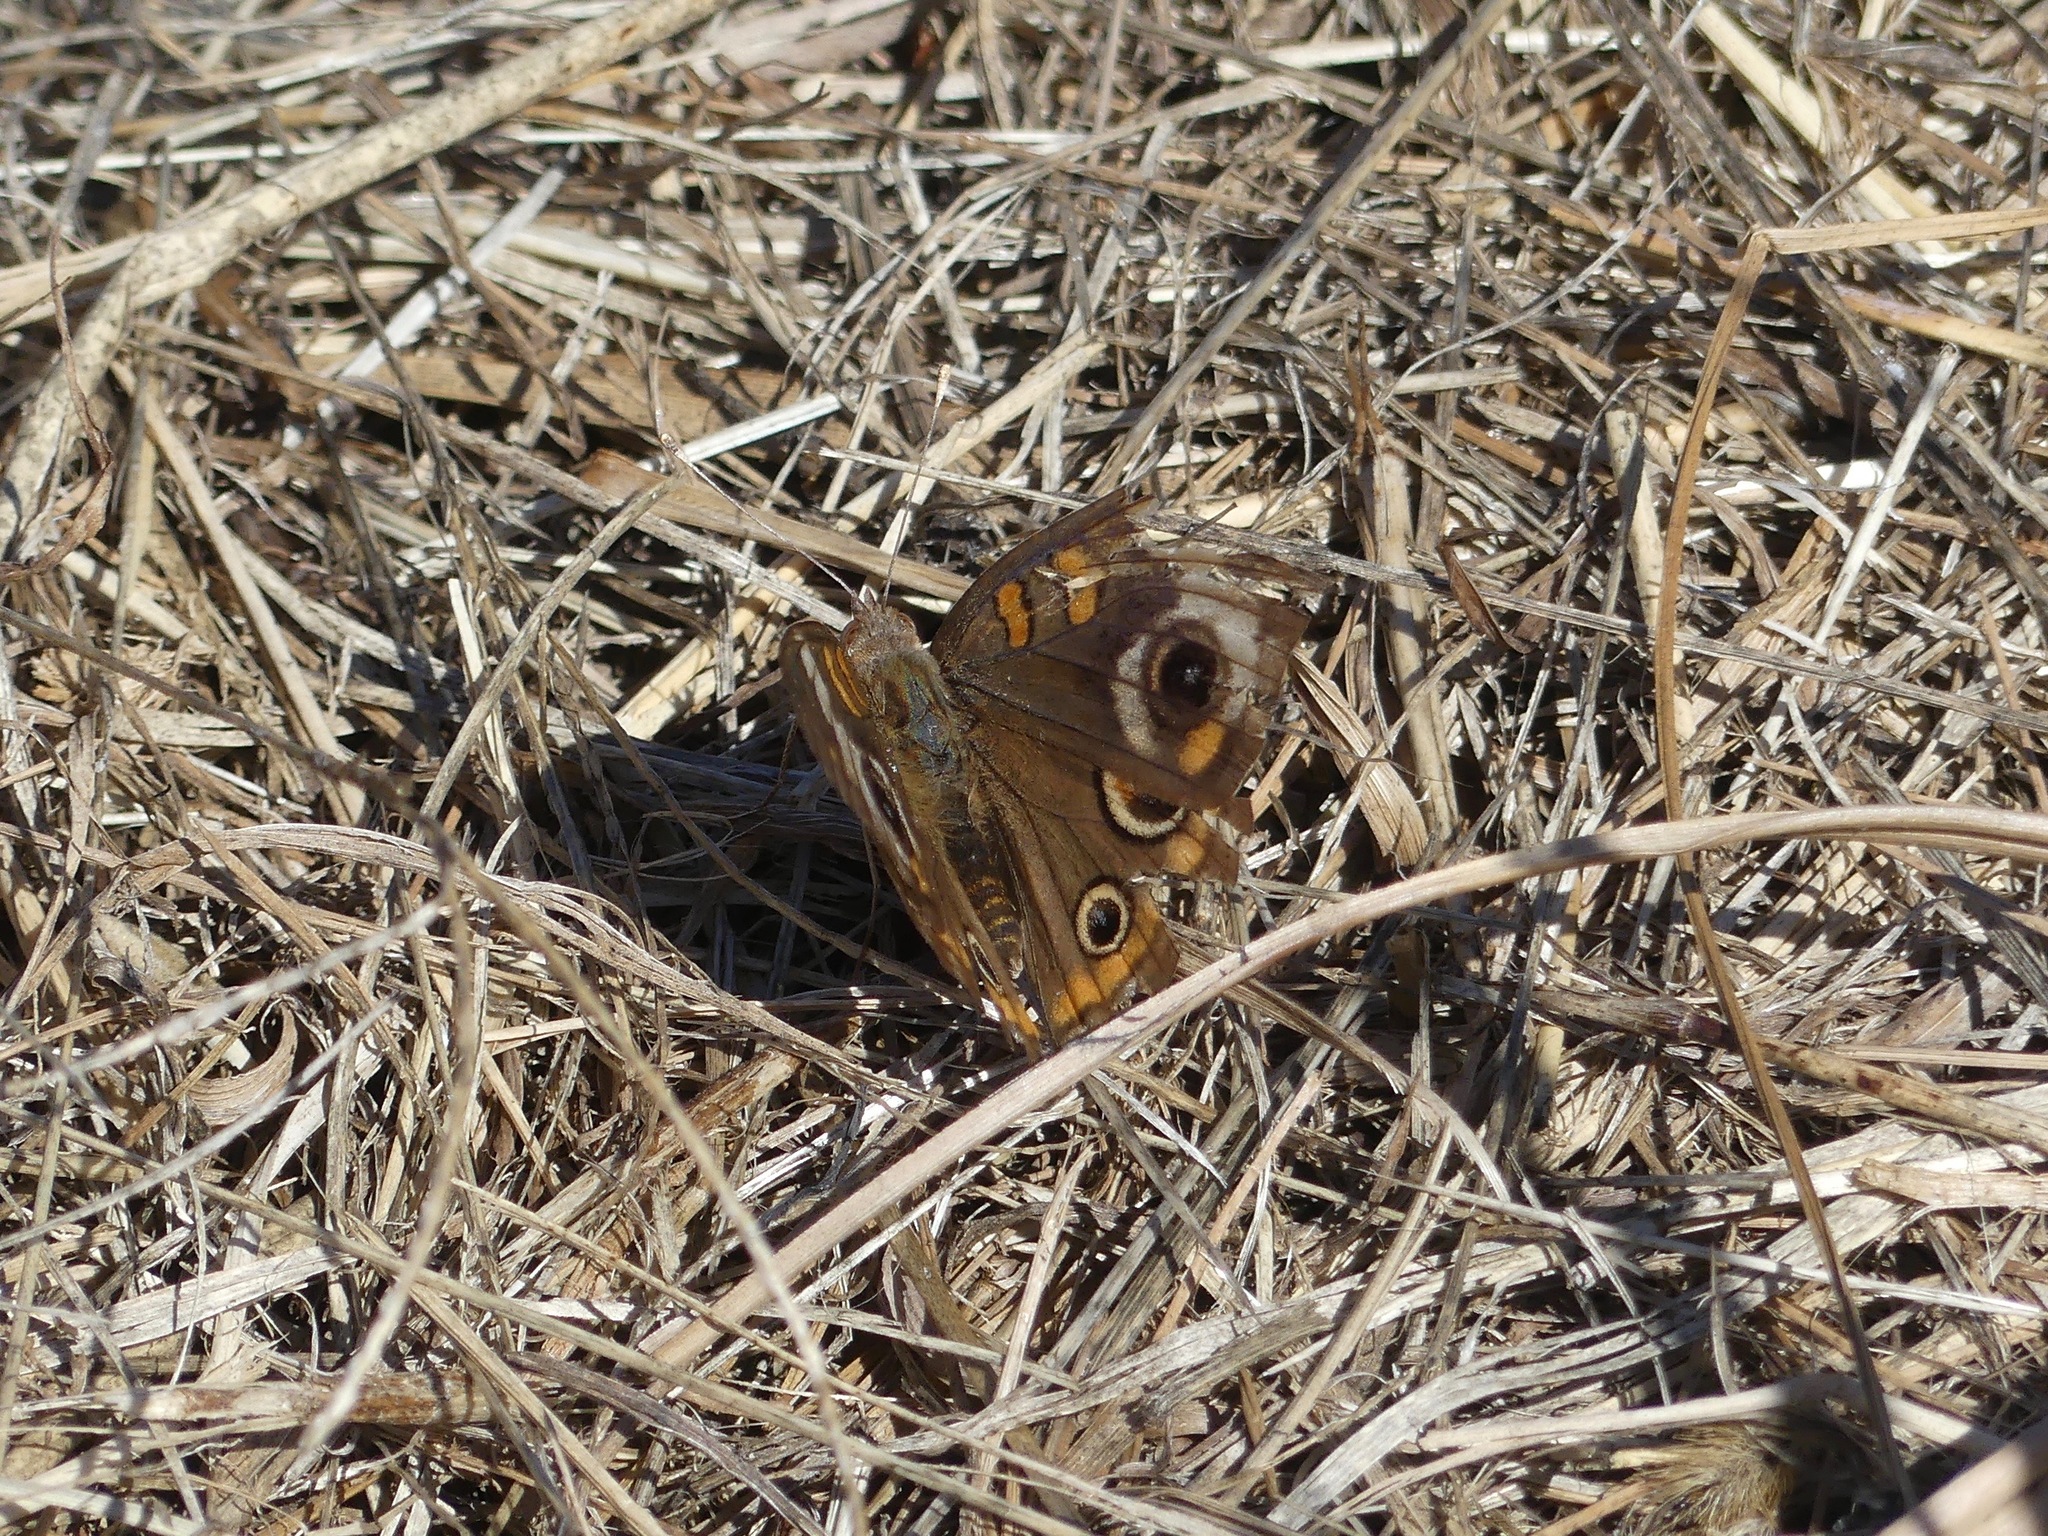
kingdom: Animalia
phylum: Arthropoda
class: Insecta
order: Lepidoptera
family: Nymphalidae
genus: Junonia
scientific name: Junonia coenia
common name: Common buckeye
